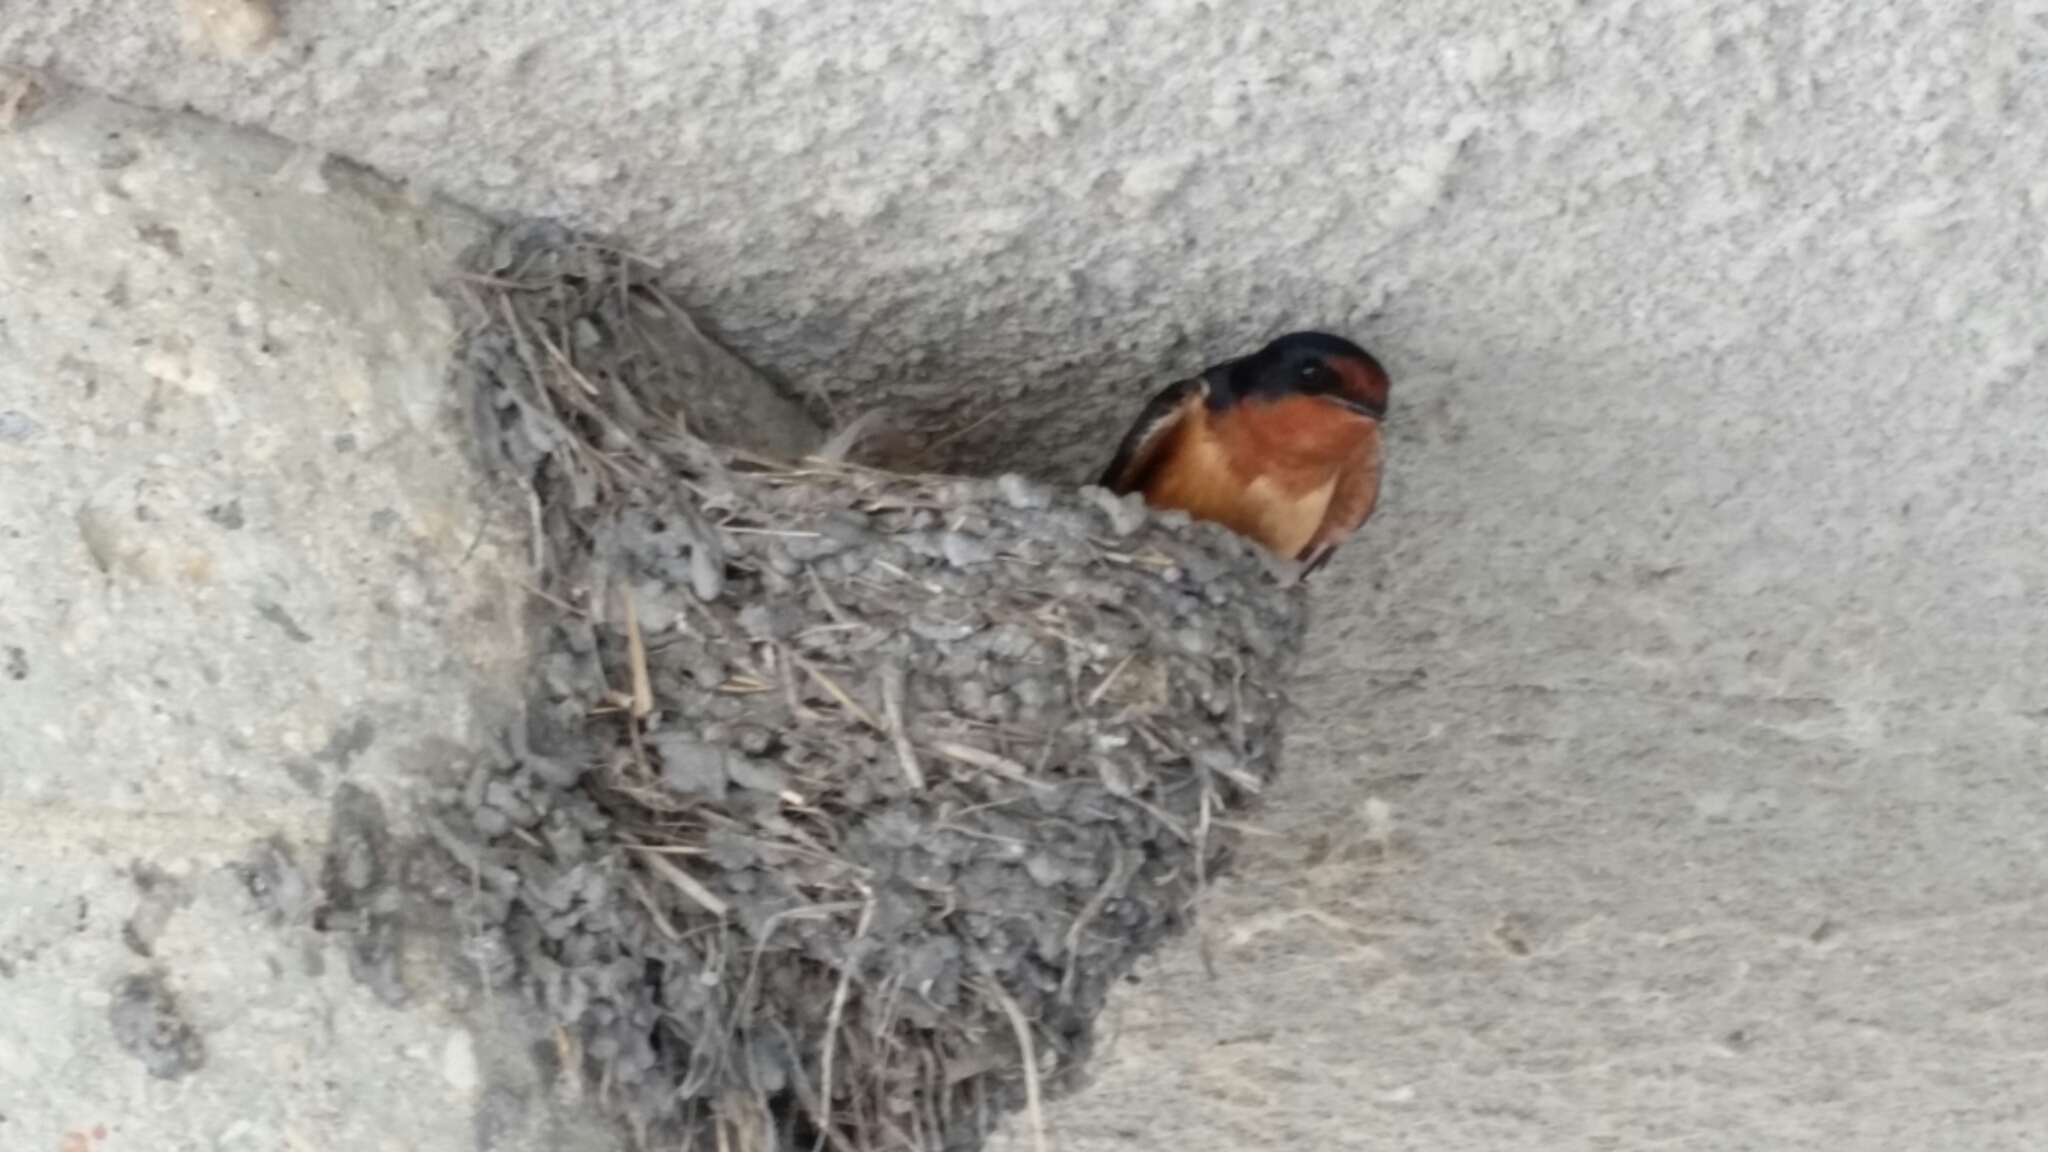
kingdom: Animalia
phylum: Chordata
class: Aves
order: Passeriformes
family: Hirundinidae
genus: Hirundo
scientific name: Hirundo rustica
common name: Barn swallow
